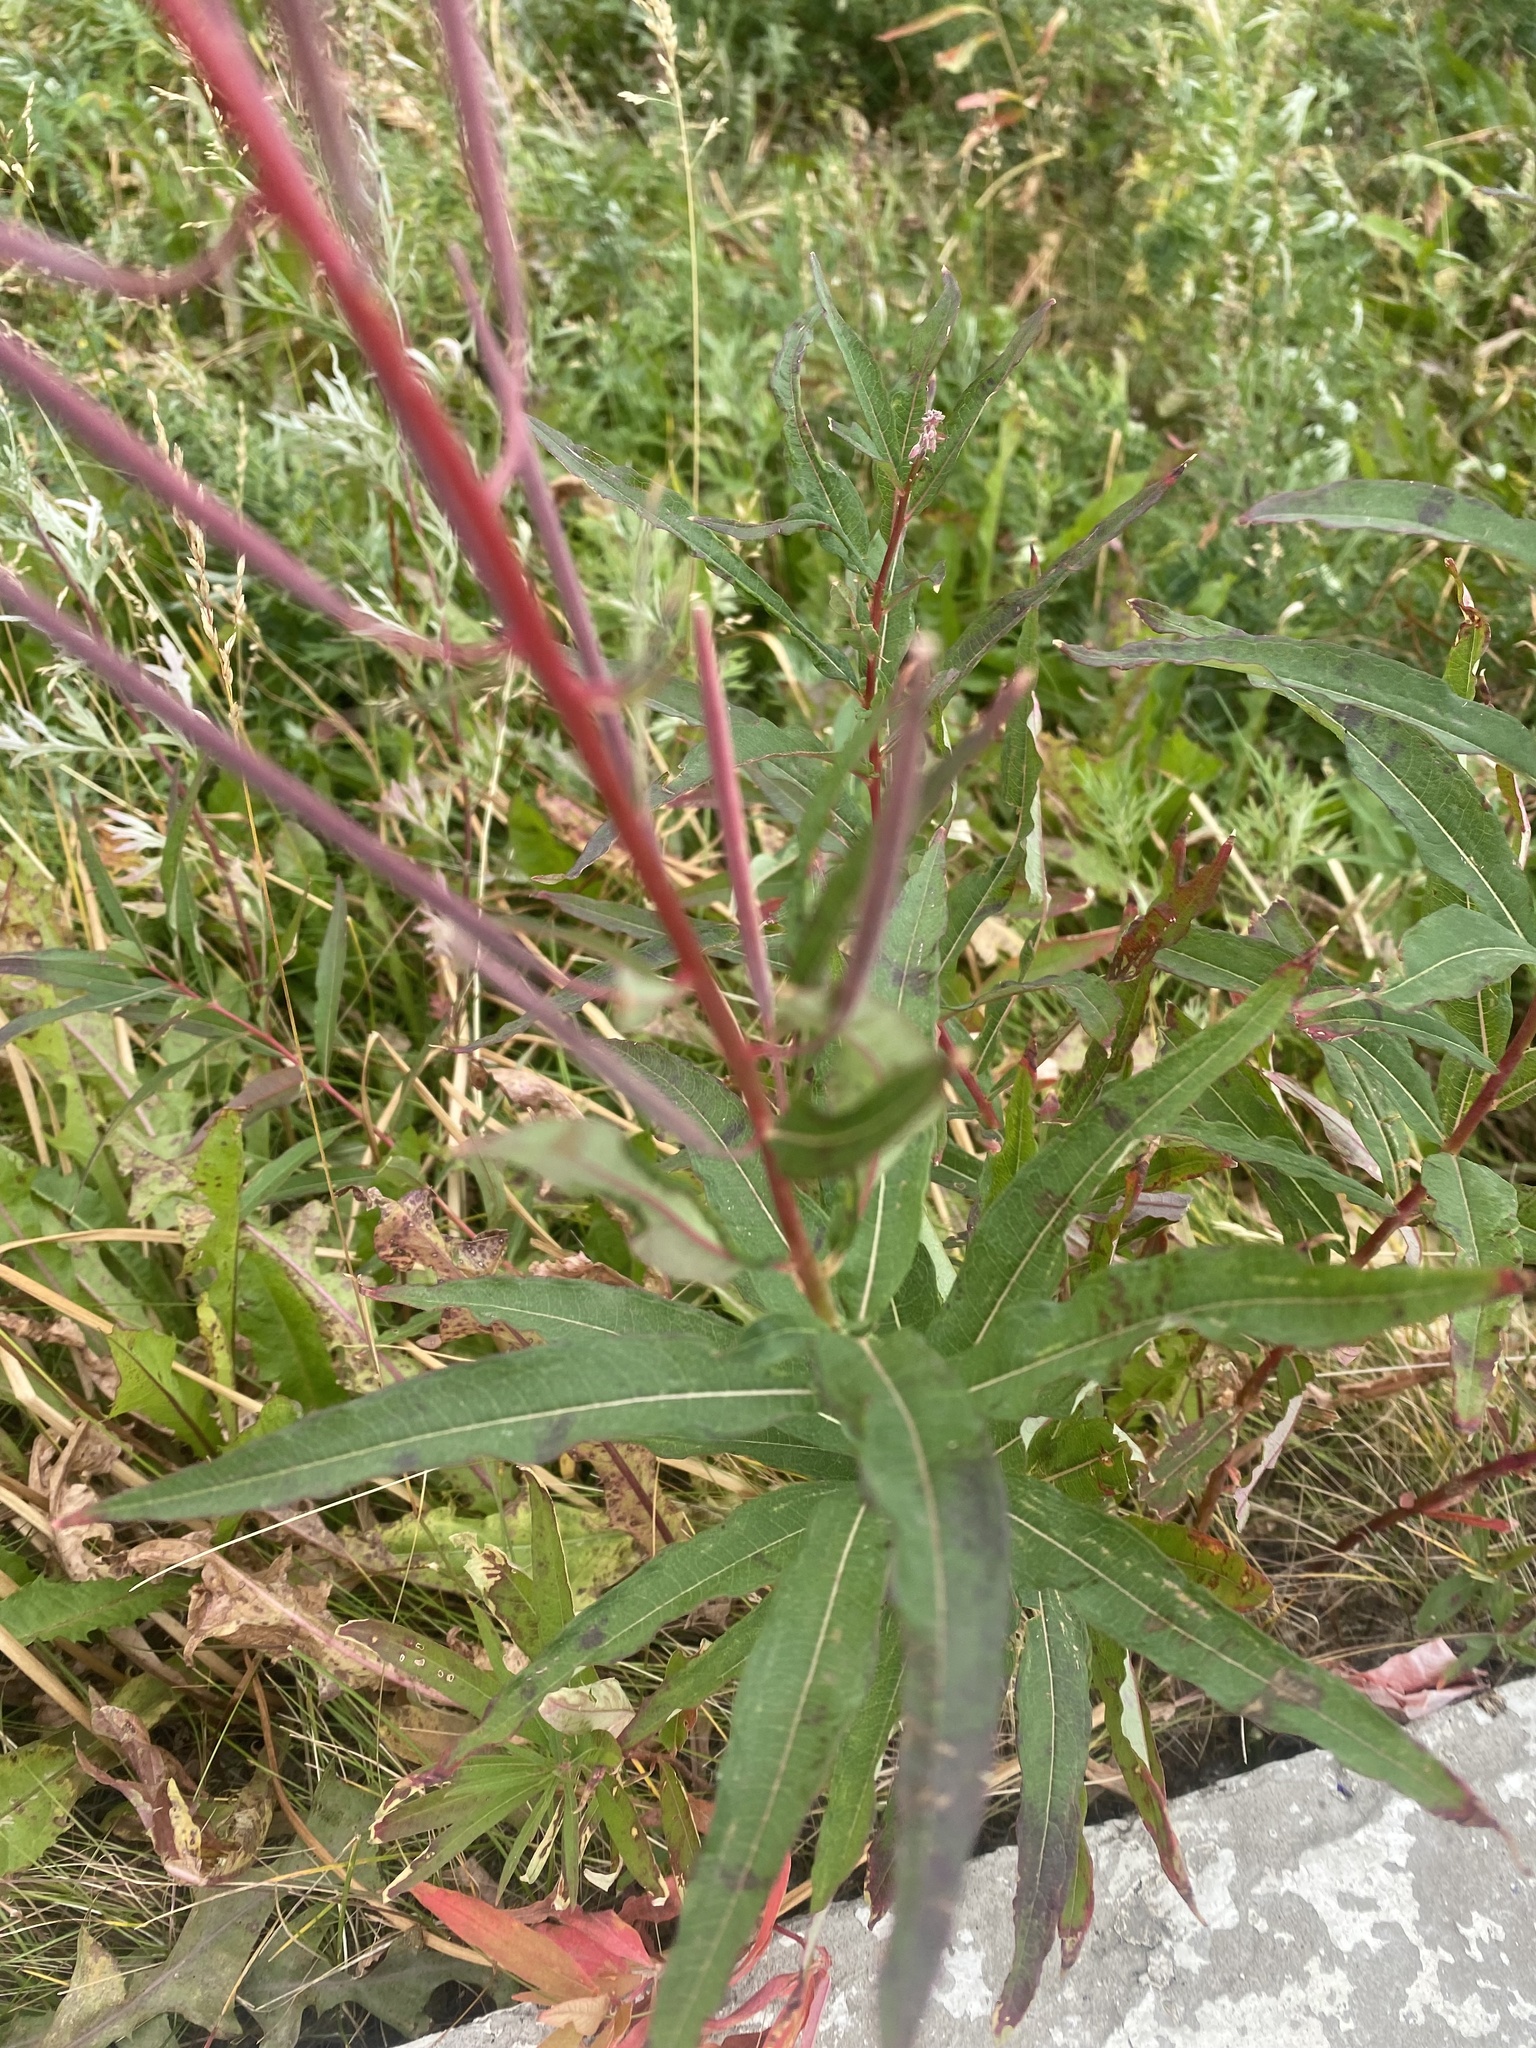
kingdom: Plantae
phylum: Tracheophyta
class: Magnoliopsida
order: Myrtales
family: Onagraceae
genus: Chamaenerion
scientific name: Chamaenerion angustifolium
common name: Fireweed
